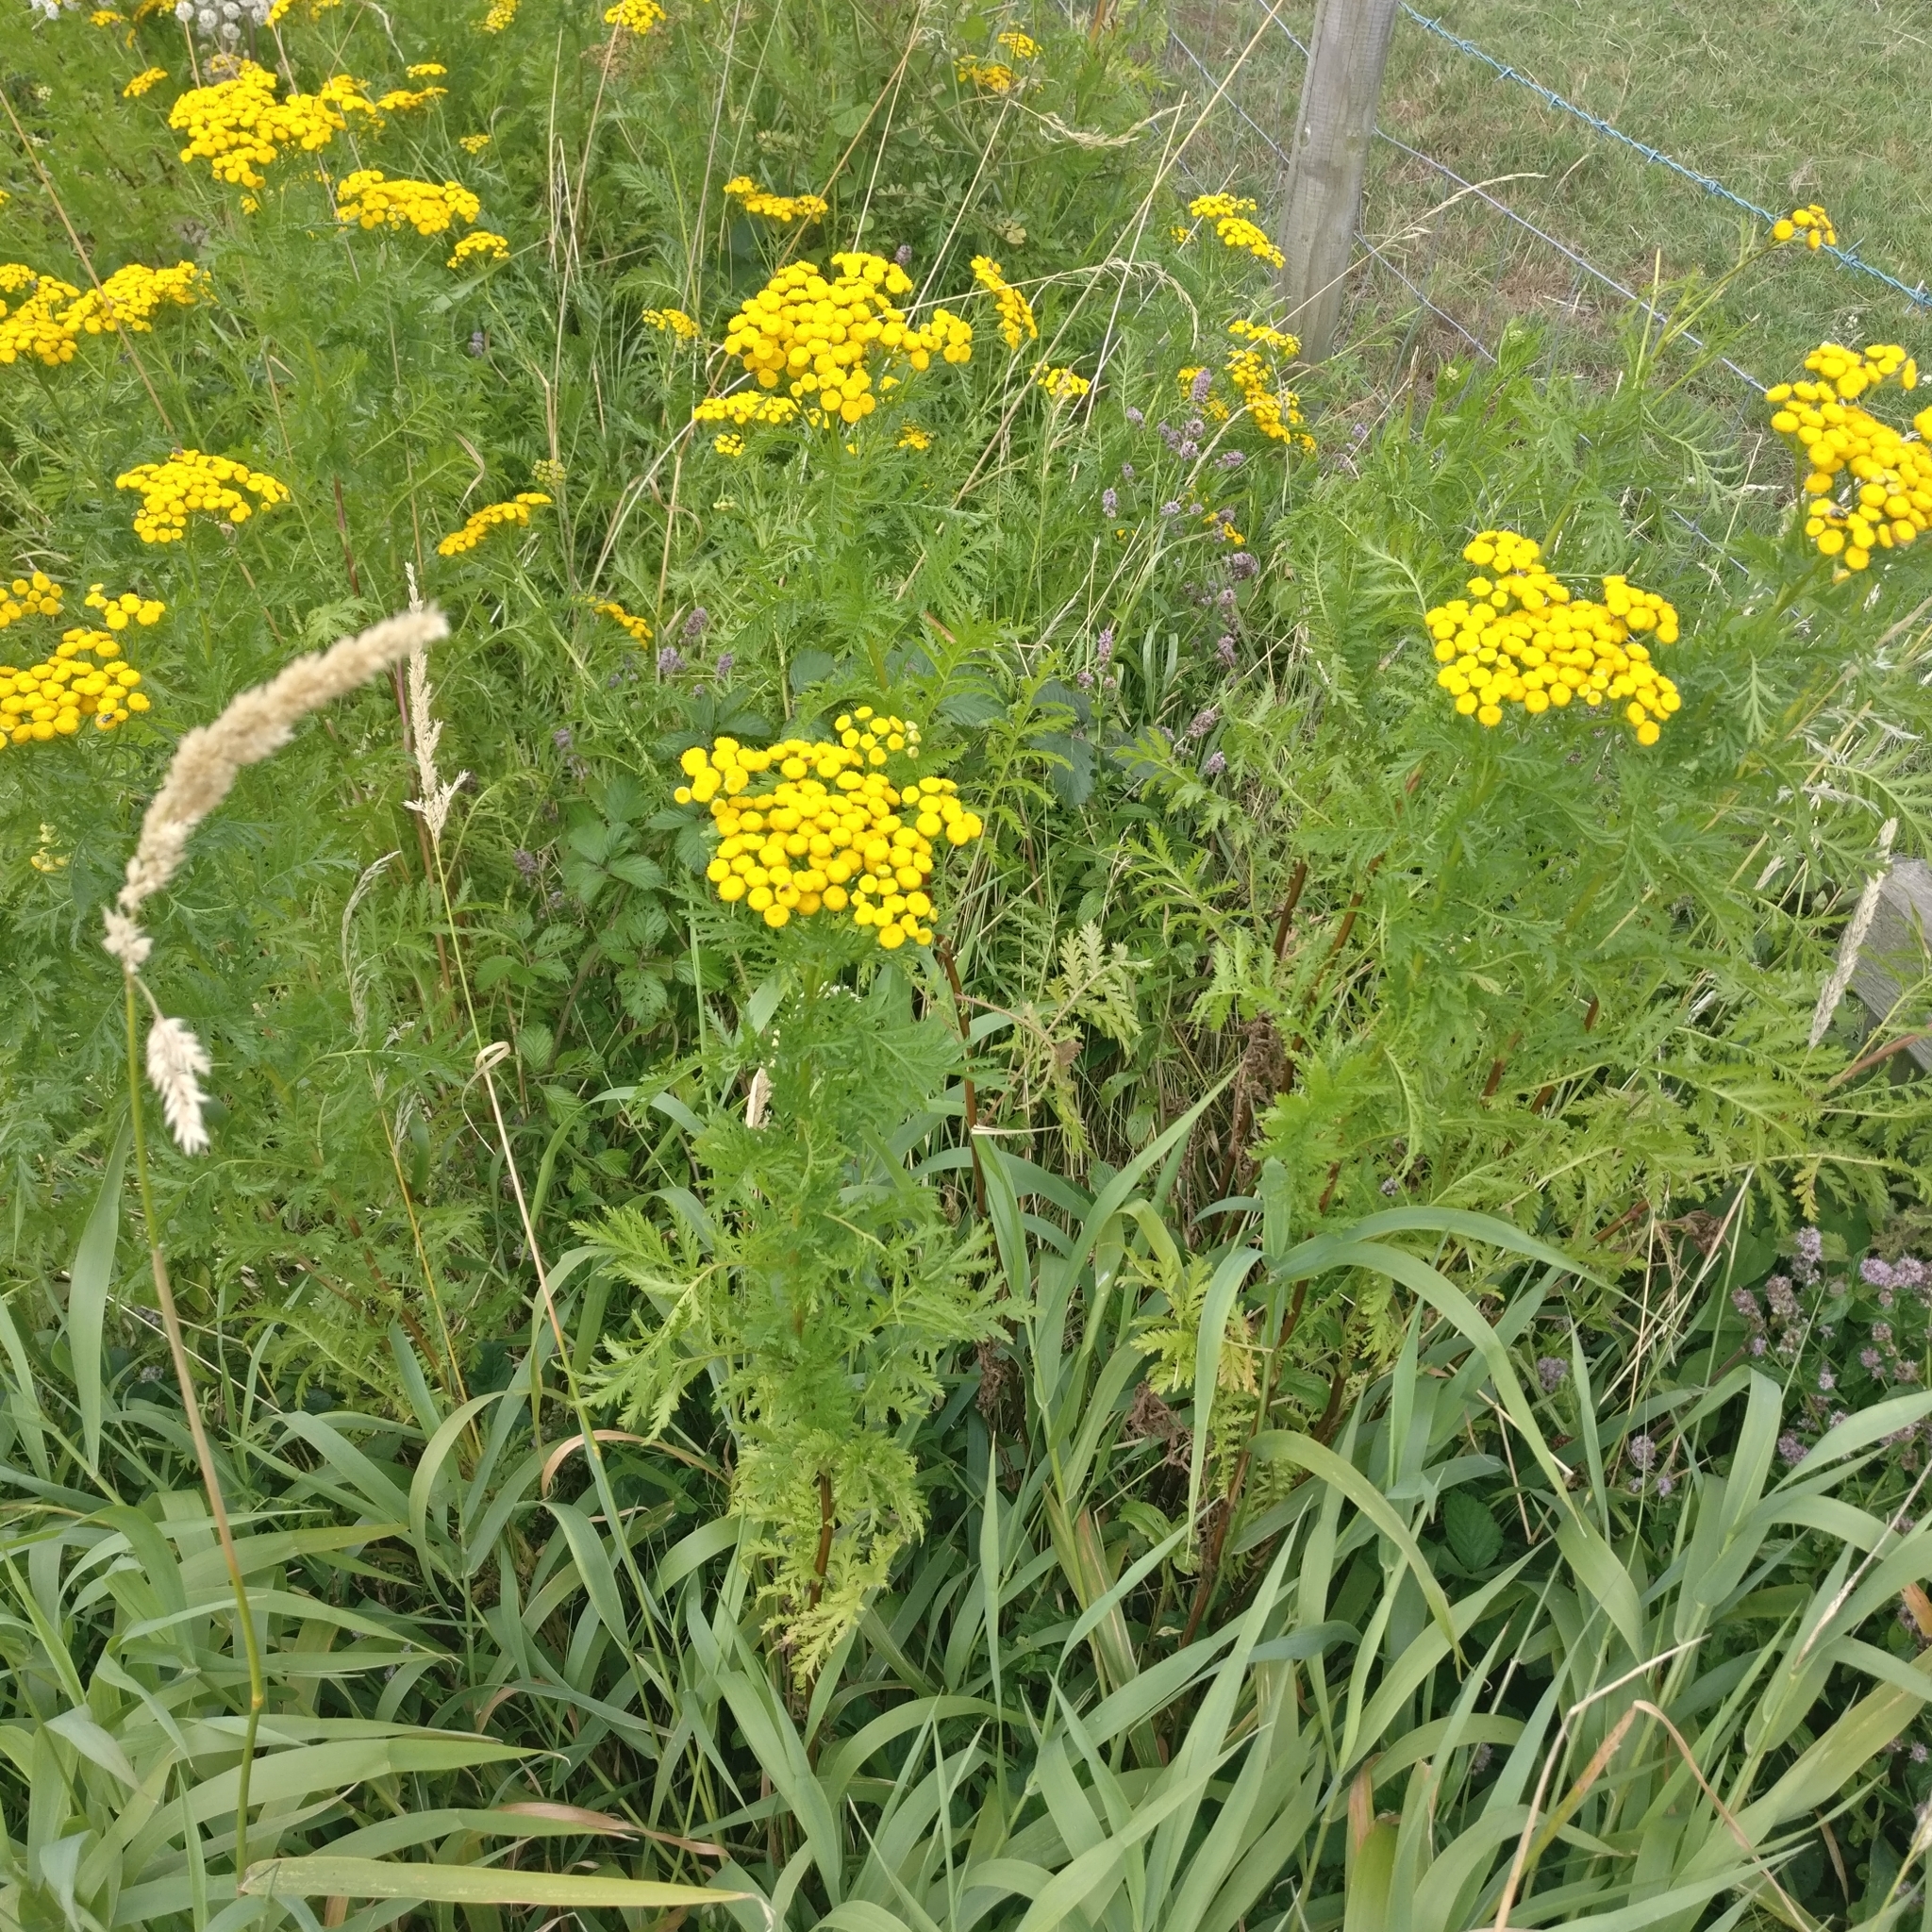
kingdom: Plantae
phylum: Tracheophyta
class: Magnoliopsida
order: Asterales
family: Asteraceae
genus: Tanacetum
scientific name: Tanacetum vulgare
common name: Common tansy
